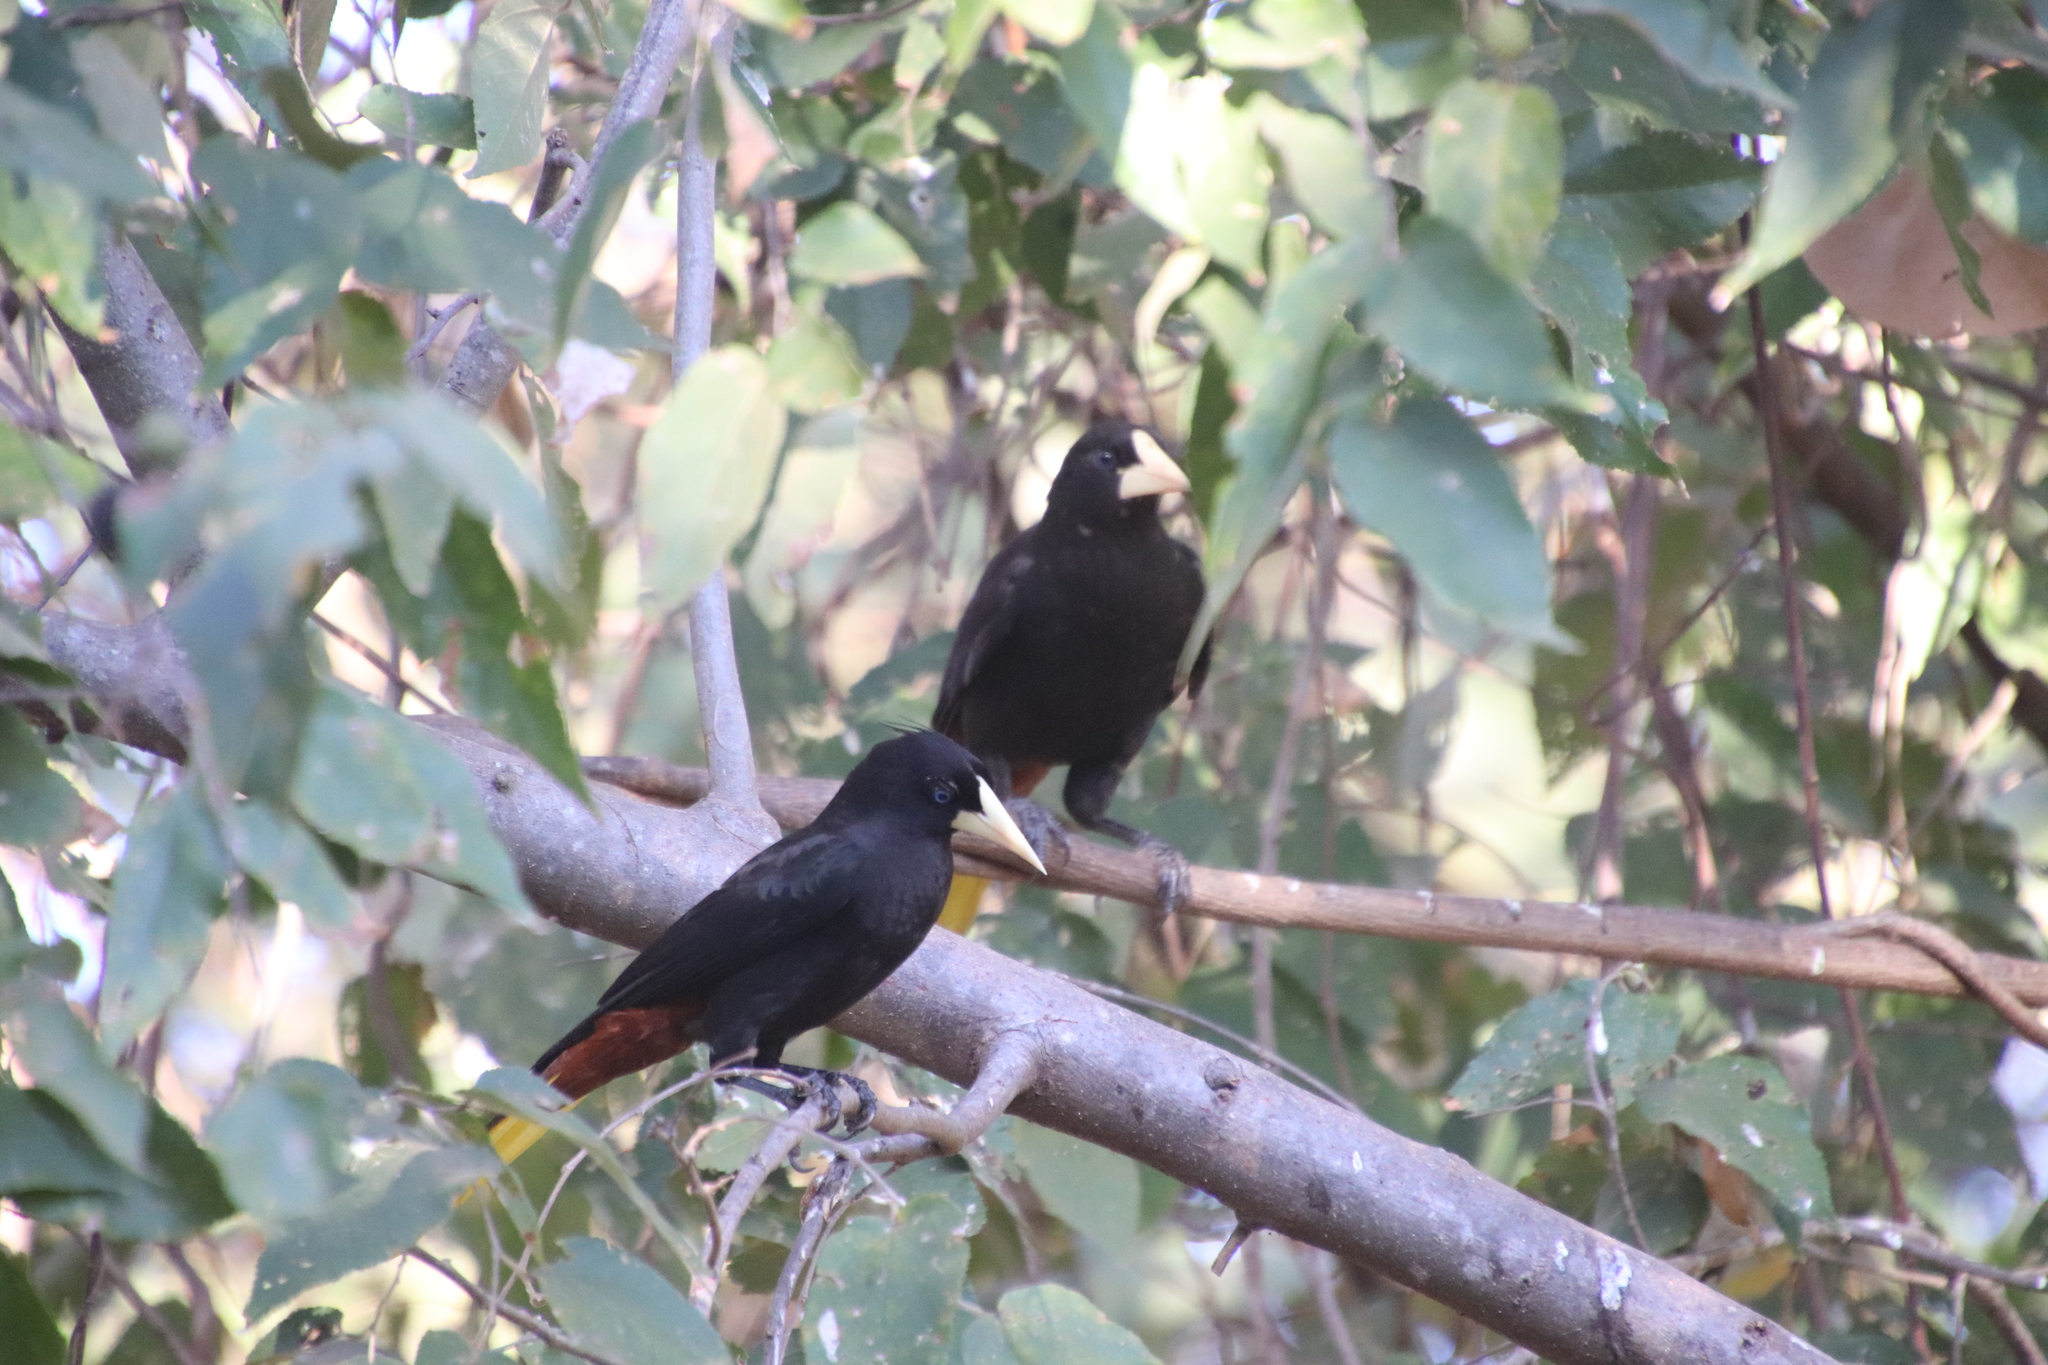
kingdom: Animalia
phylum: Chordata
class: Aves
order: Passeriformes
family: Icteridae
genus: Psarocolius
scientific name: Psarocolius decumanus
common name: Crested oropendola
